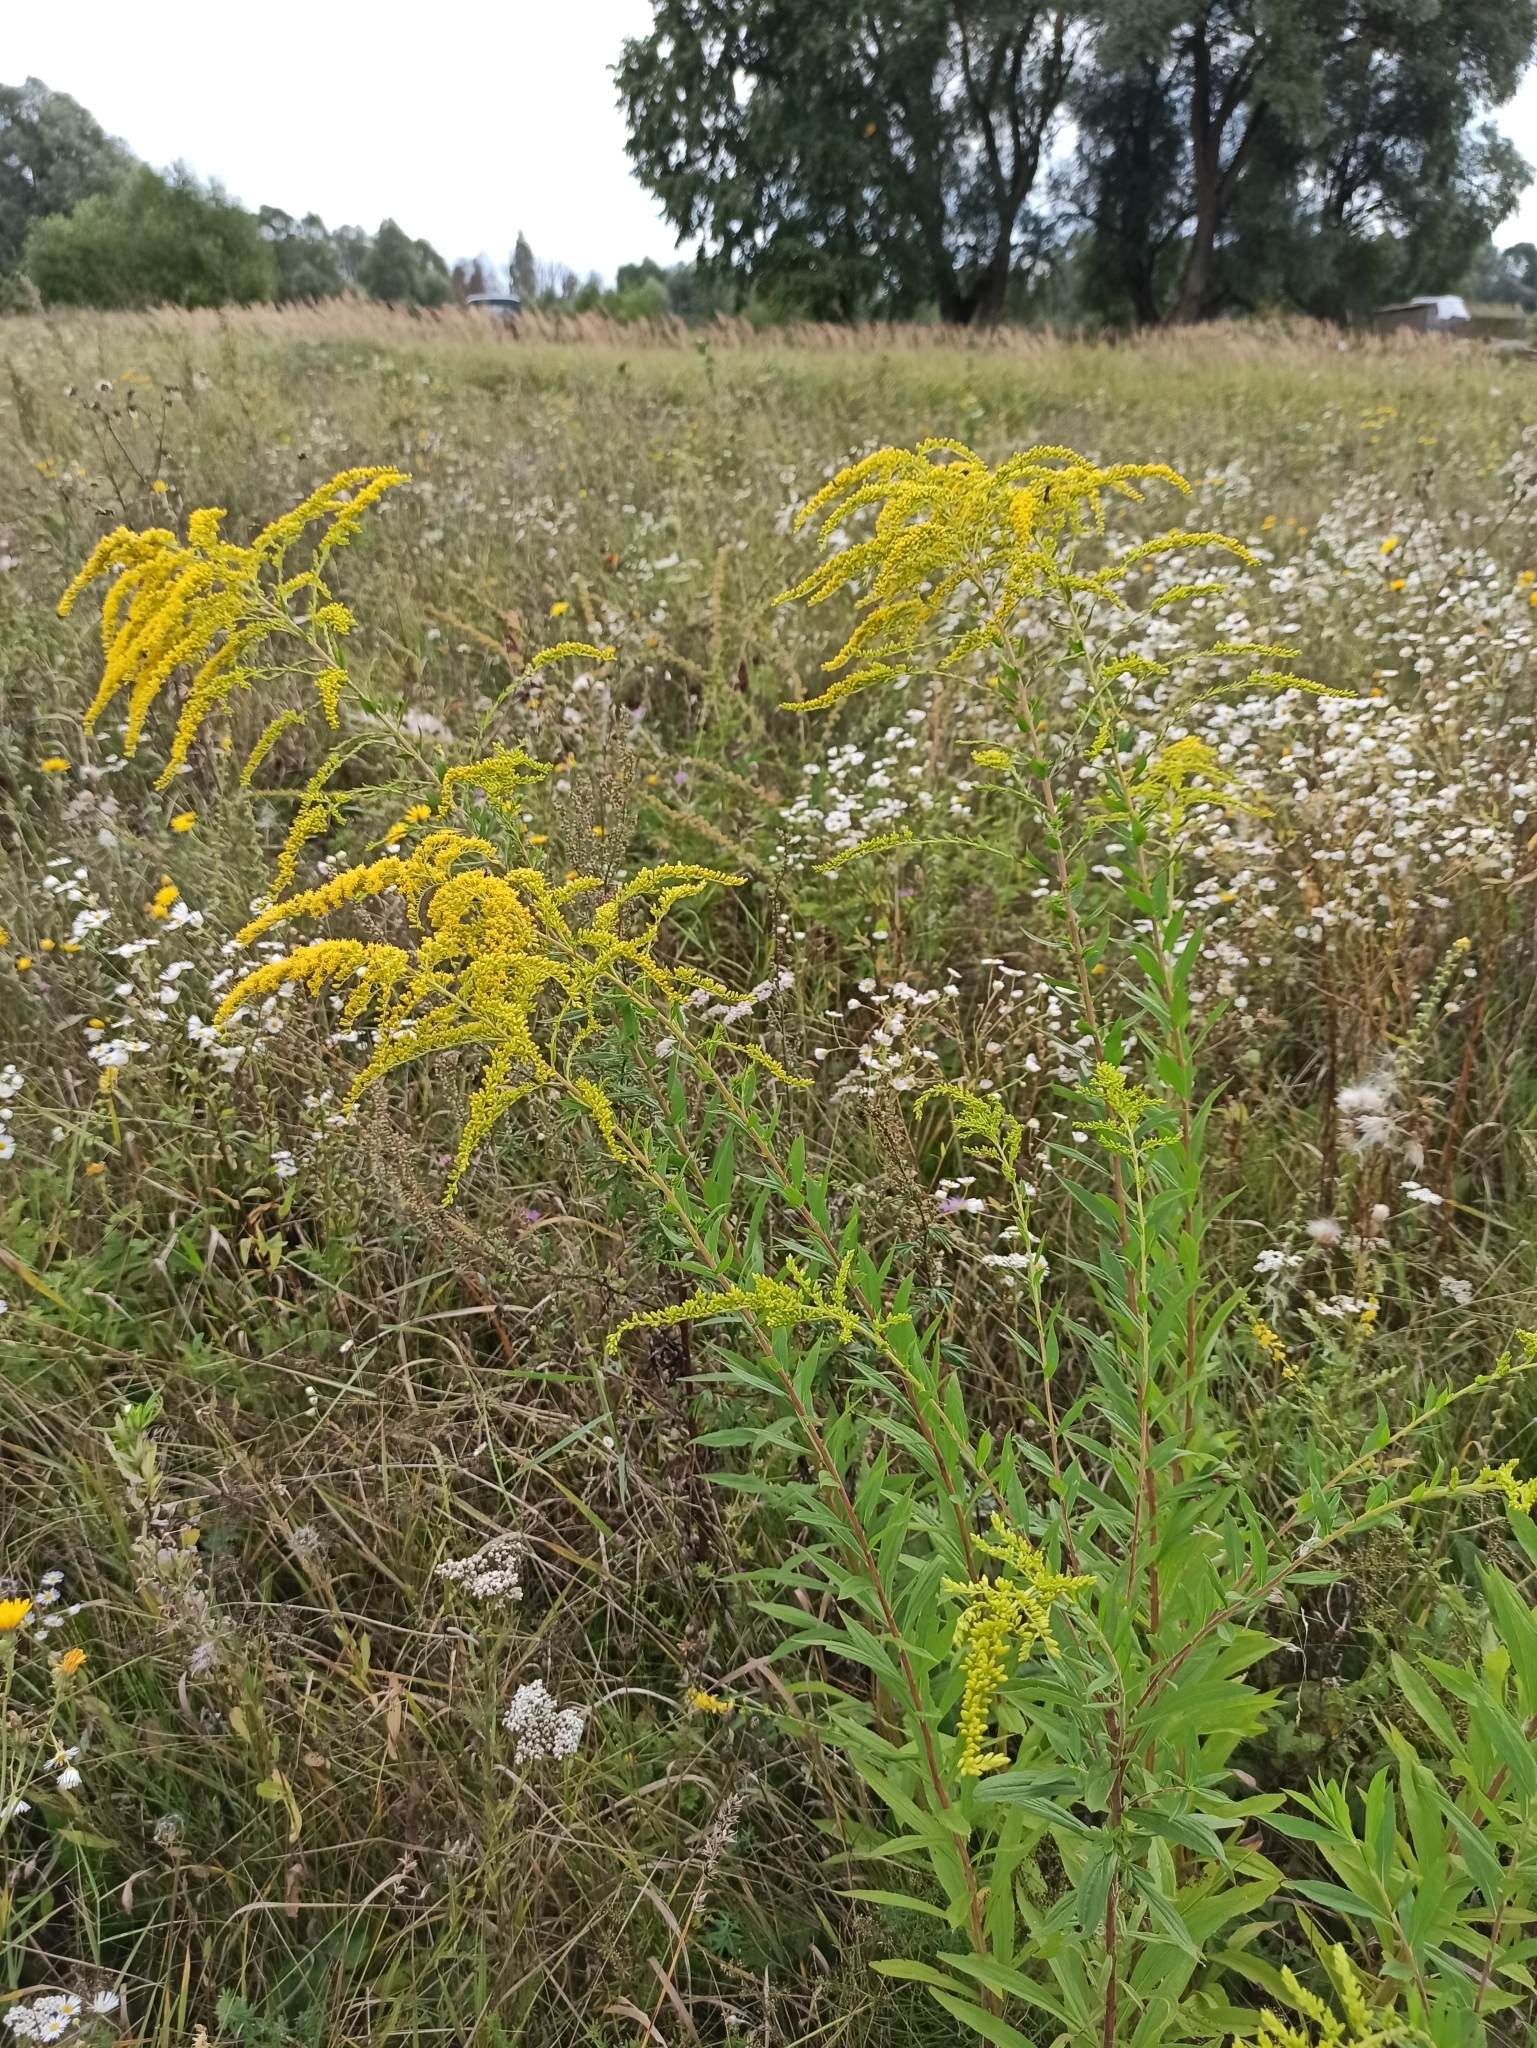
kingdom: Plantae
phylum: Tracheophyta
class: Magnoliopsida
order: Asterales
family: Asteraceae
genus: Solidago
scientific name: Solidago canadensis
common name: Canada goldenrod
